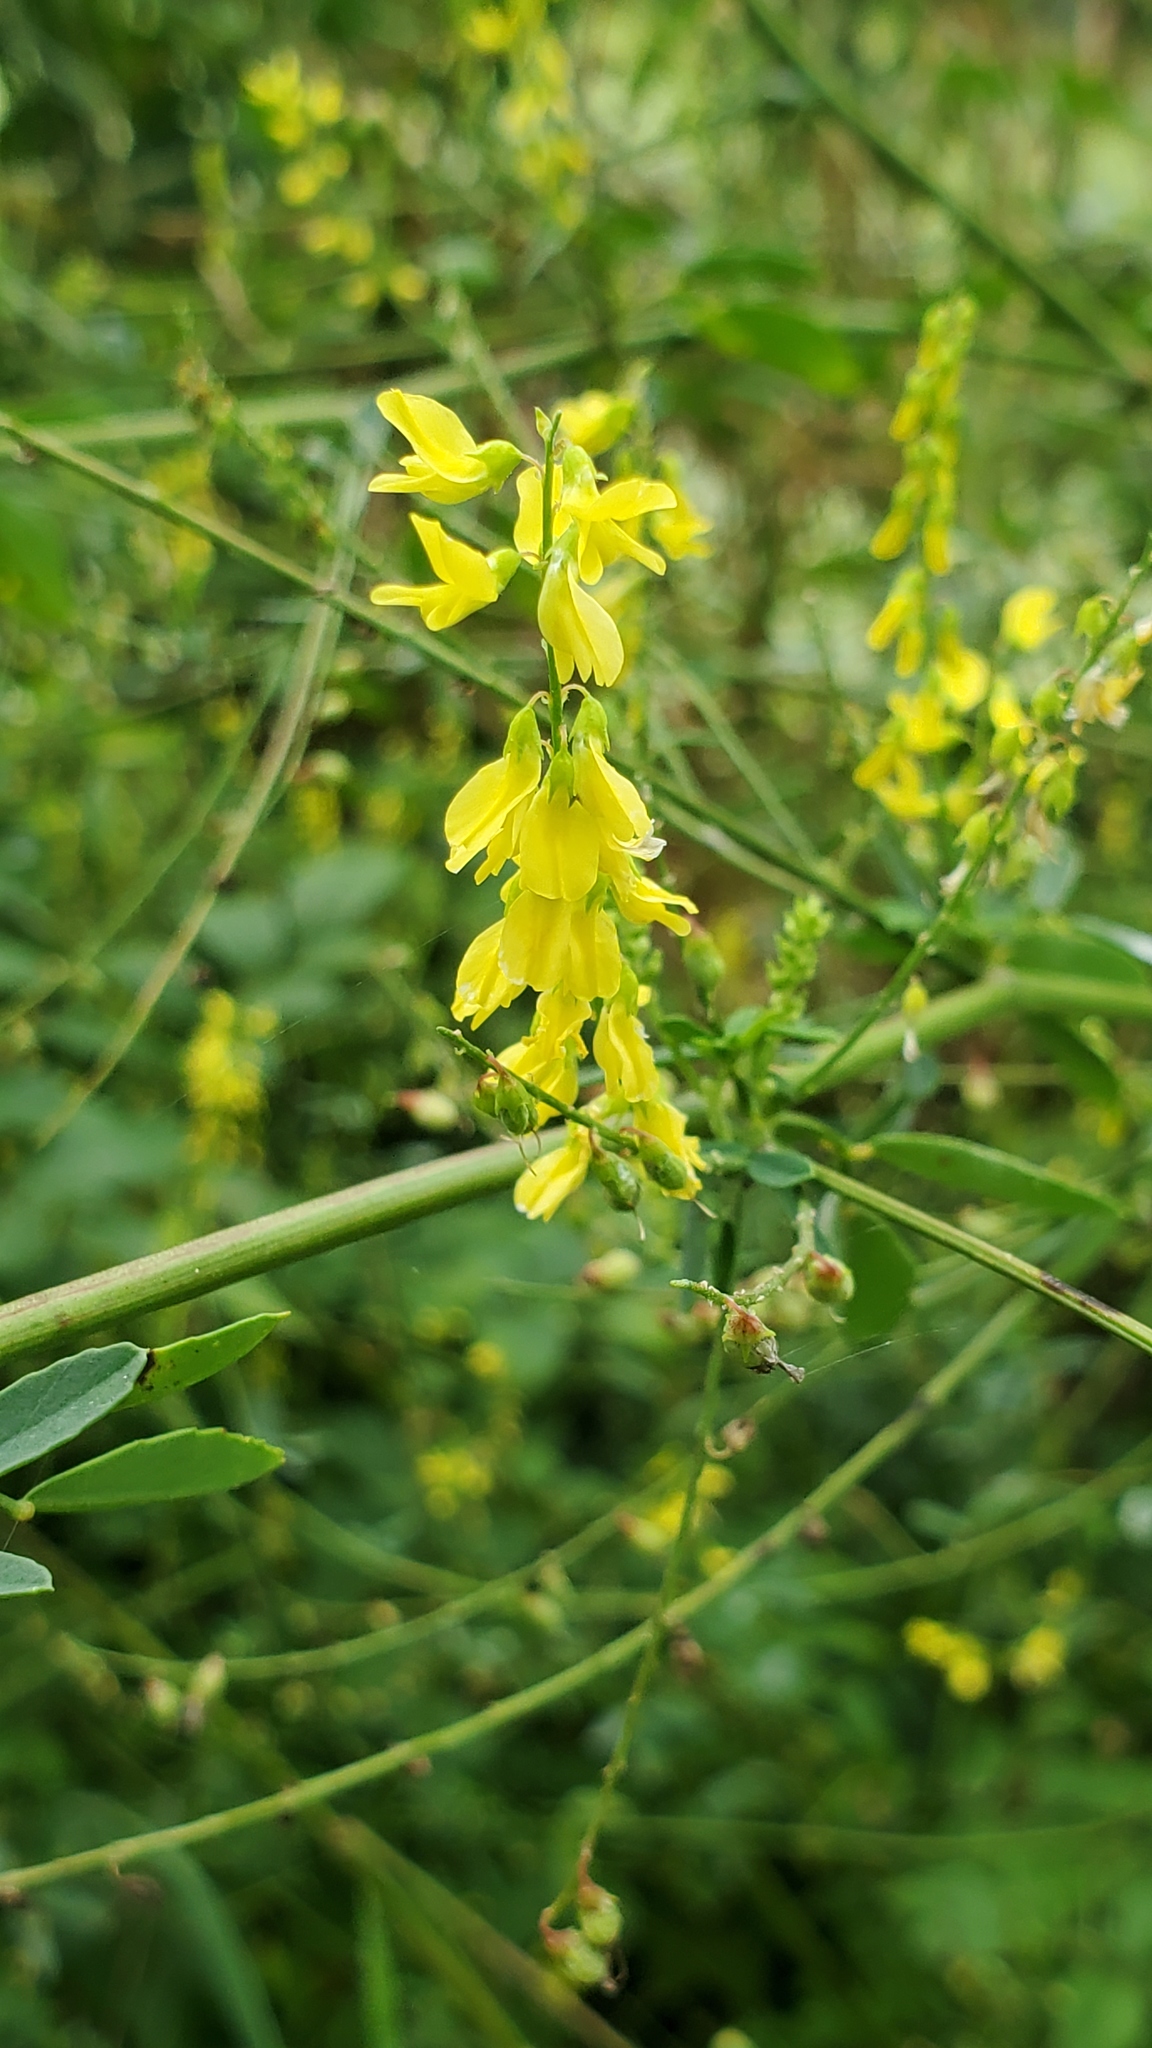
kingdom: Plantae
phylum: Tracheophyta
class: Magnoliopsida
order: Fabales
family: Fabaceae
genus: Melilotus
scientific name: Melilotus officinalis
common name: Sweetclover
